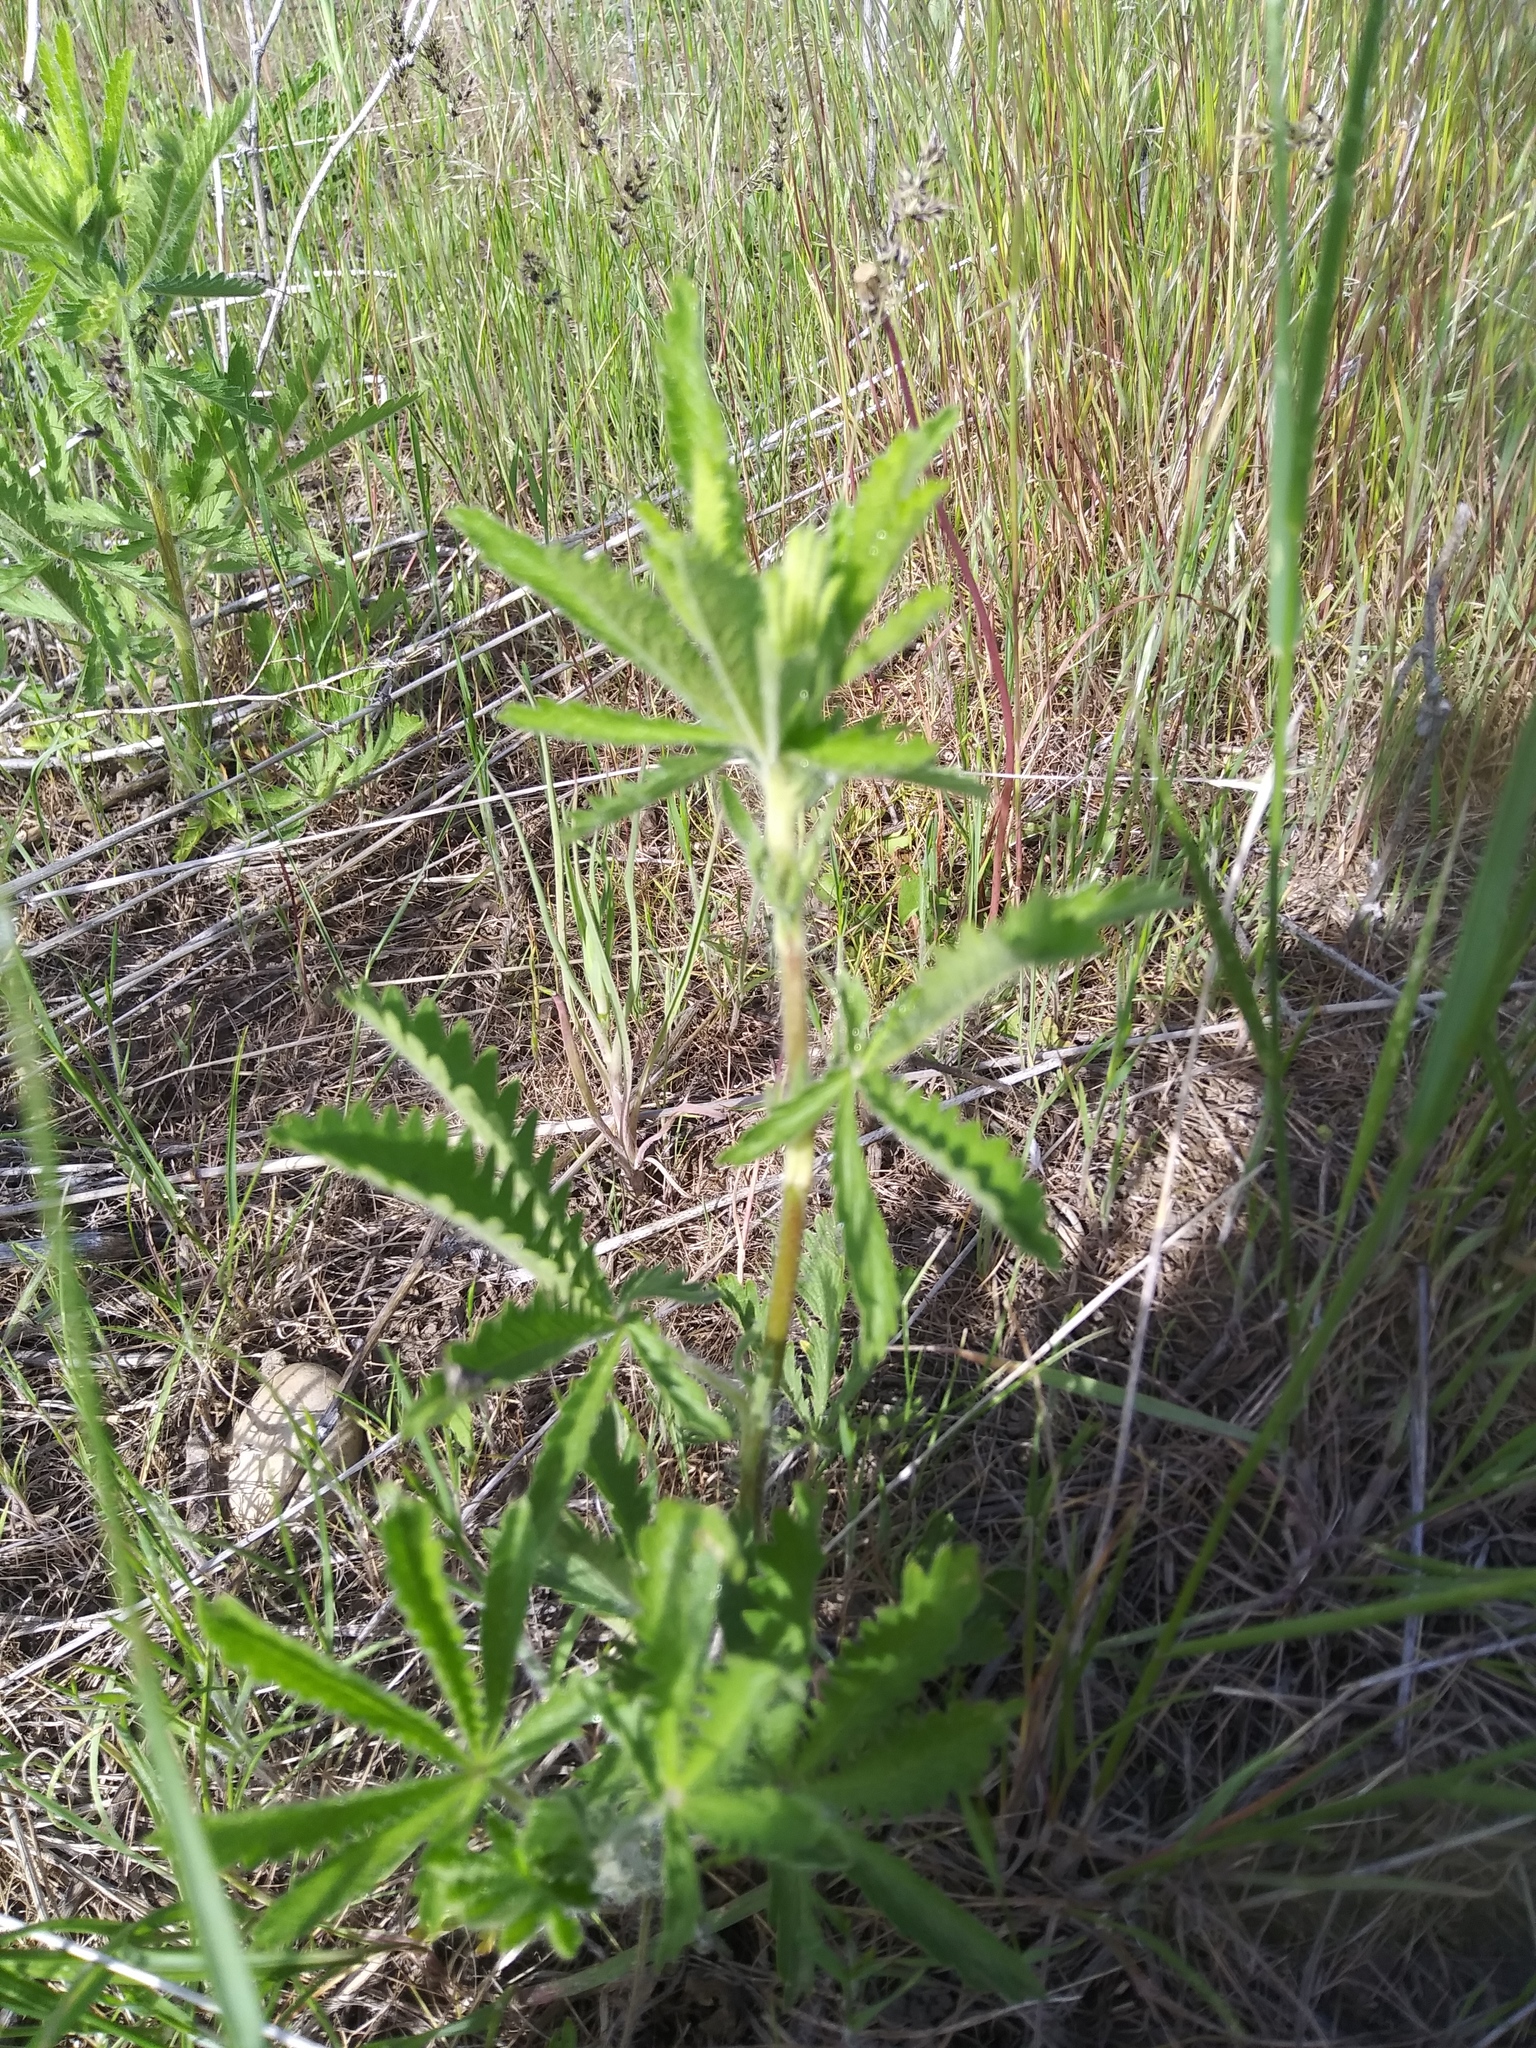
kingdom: Plantae
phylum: Tracheophyta
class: Magnoliopsida
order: Rosales
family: Rosaceae
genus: Potentilla
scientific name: Potentilla recta
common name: Sulphur cinquefoil
